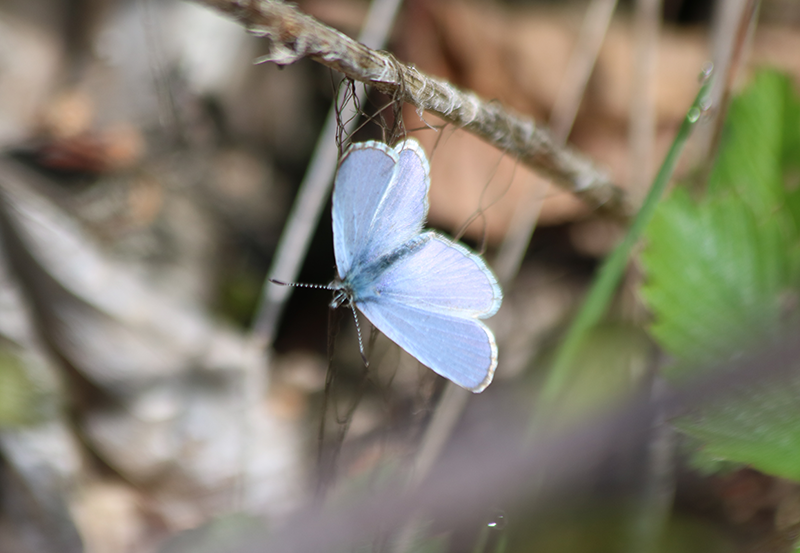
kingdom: Animalia
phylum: Arthropoda
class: Insecta
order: Lepidoptera
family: Lycaenidae
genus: Celastrina
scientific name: Celastrina ladon
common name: Spring azure
